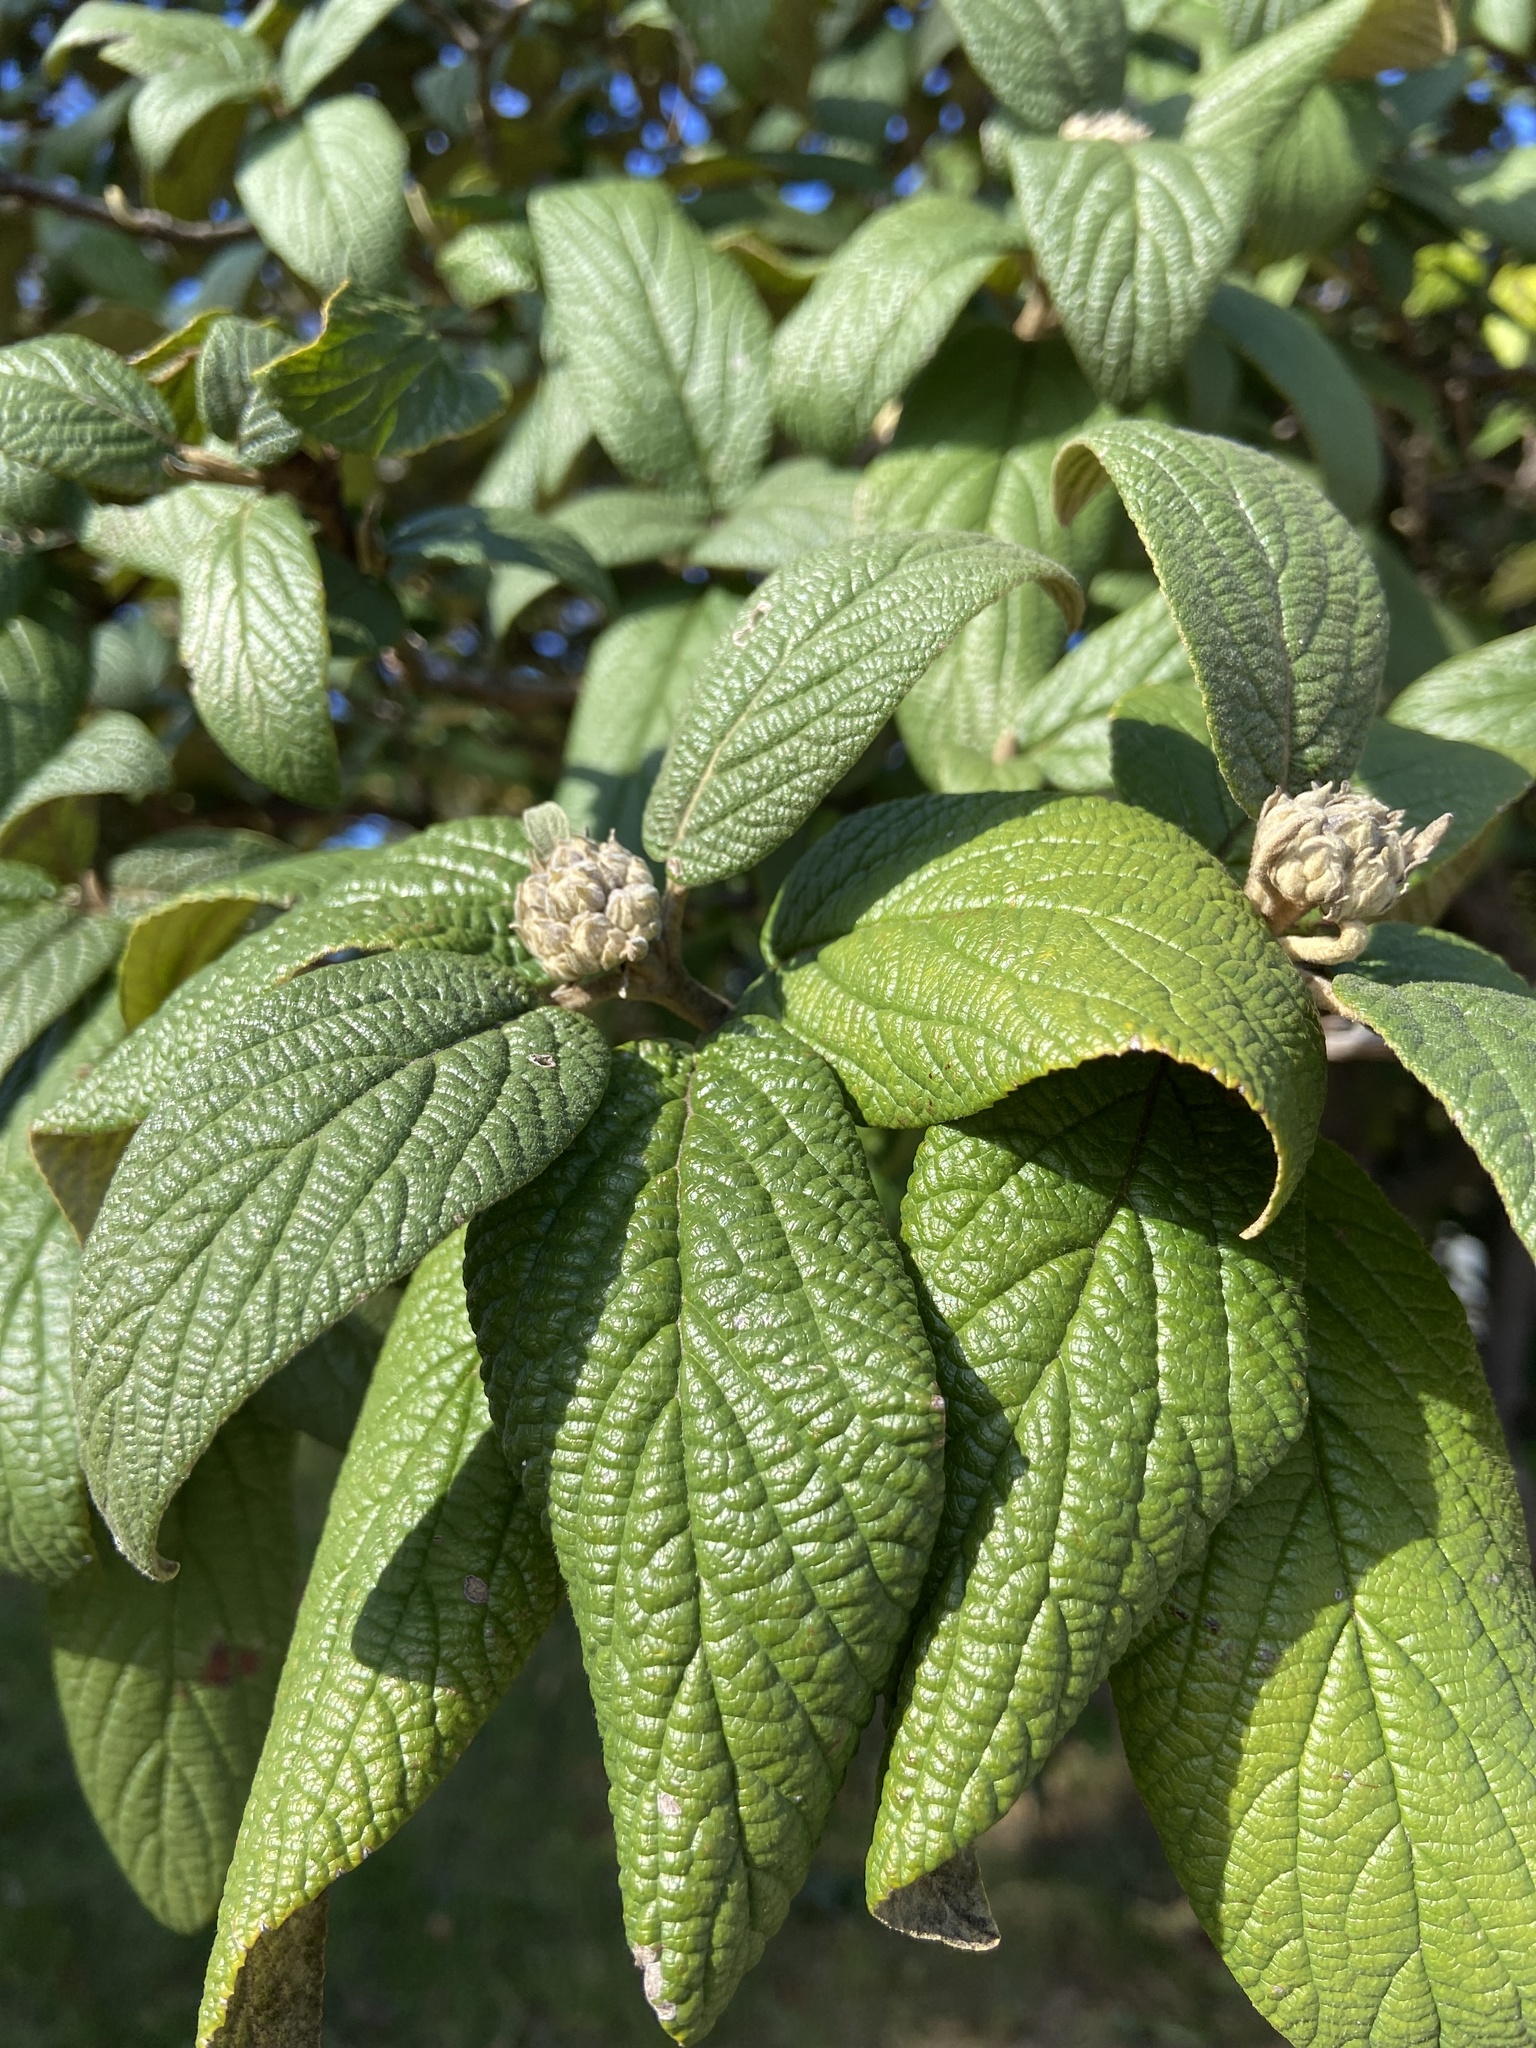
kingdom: Plantae
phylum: Tracheophyta
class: Magnoliopsida
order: Dipsacales
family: Viburnaceae
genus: Viburnum
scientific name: Viburnum rhytidophyllum
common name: Wrinkled viburnum
